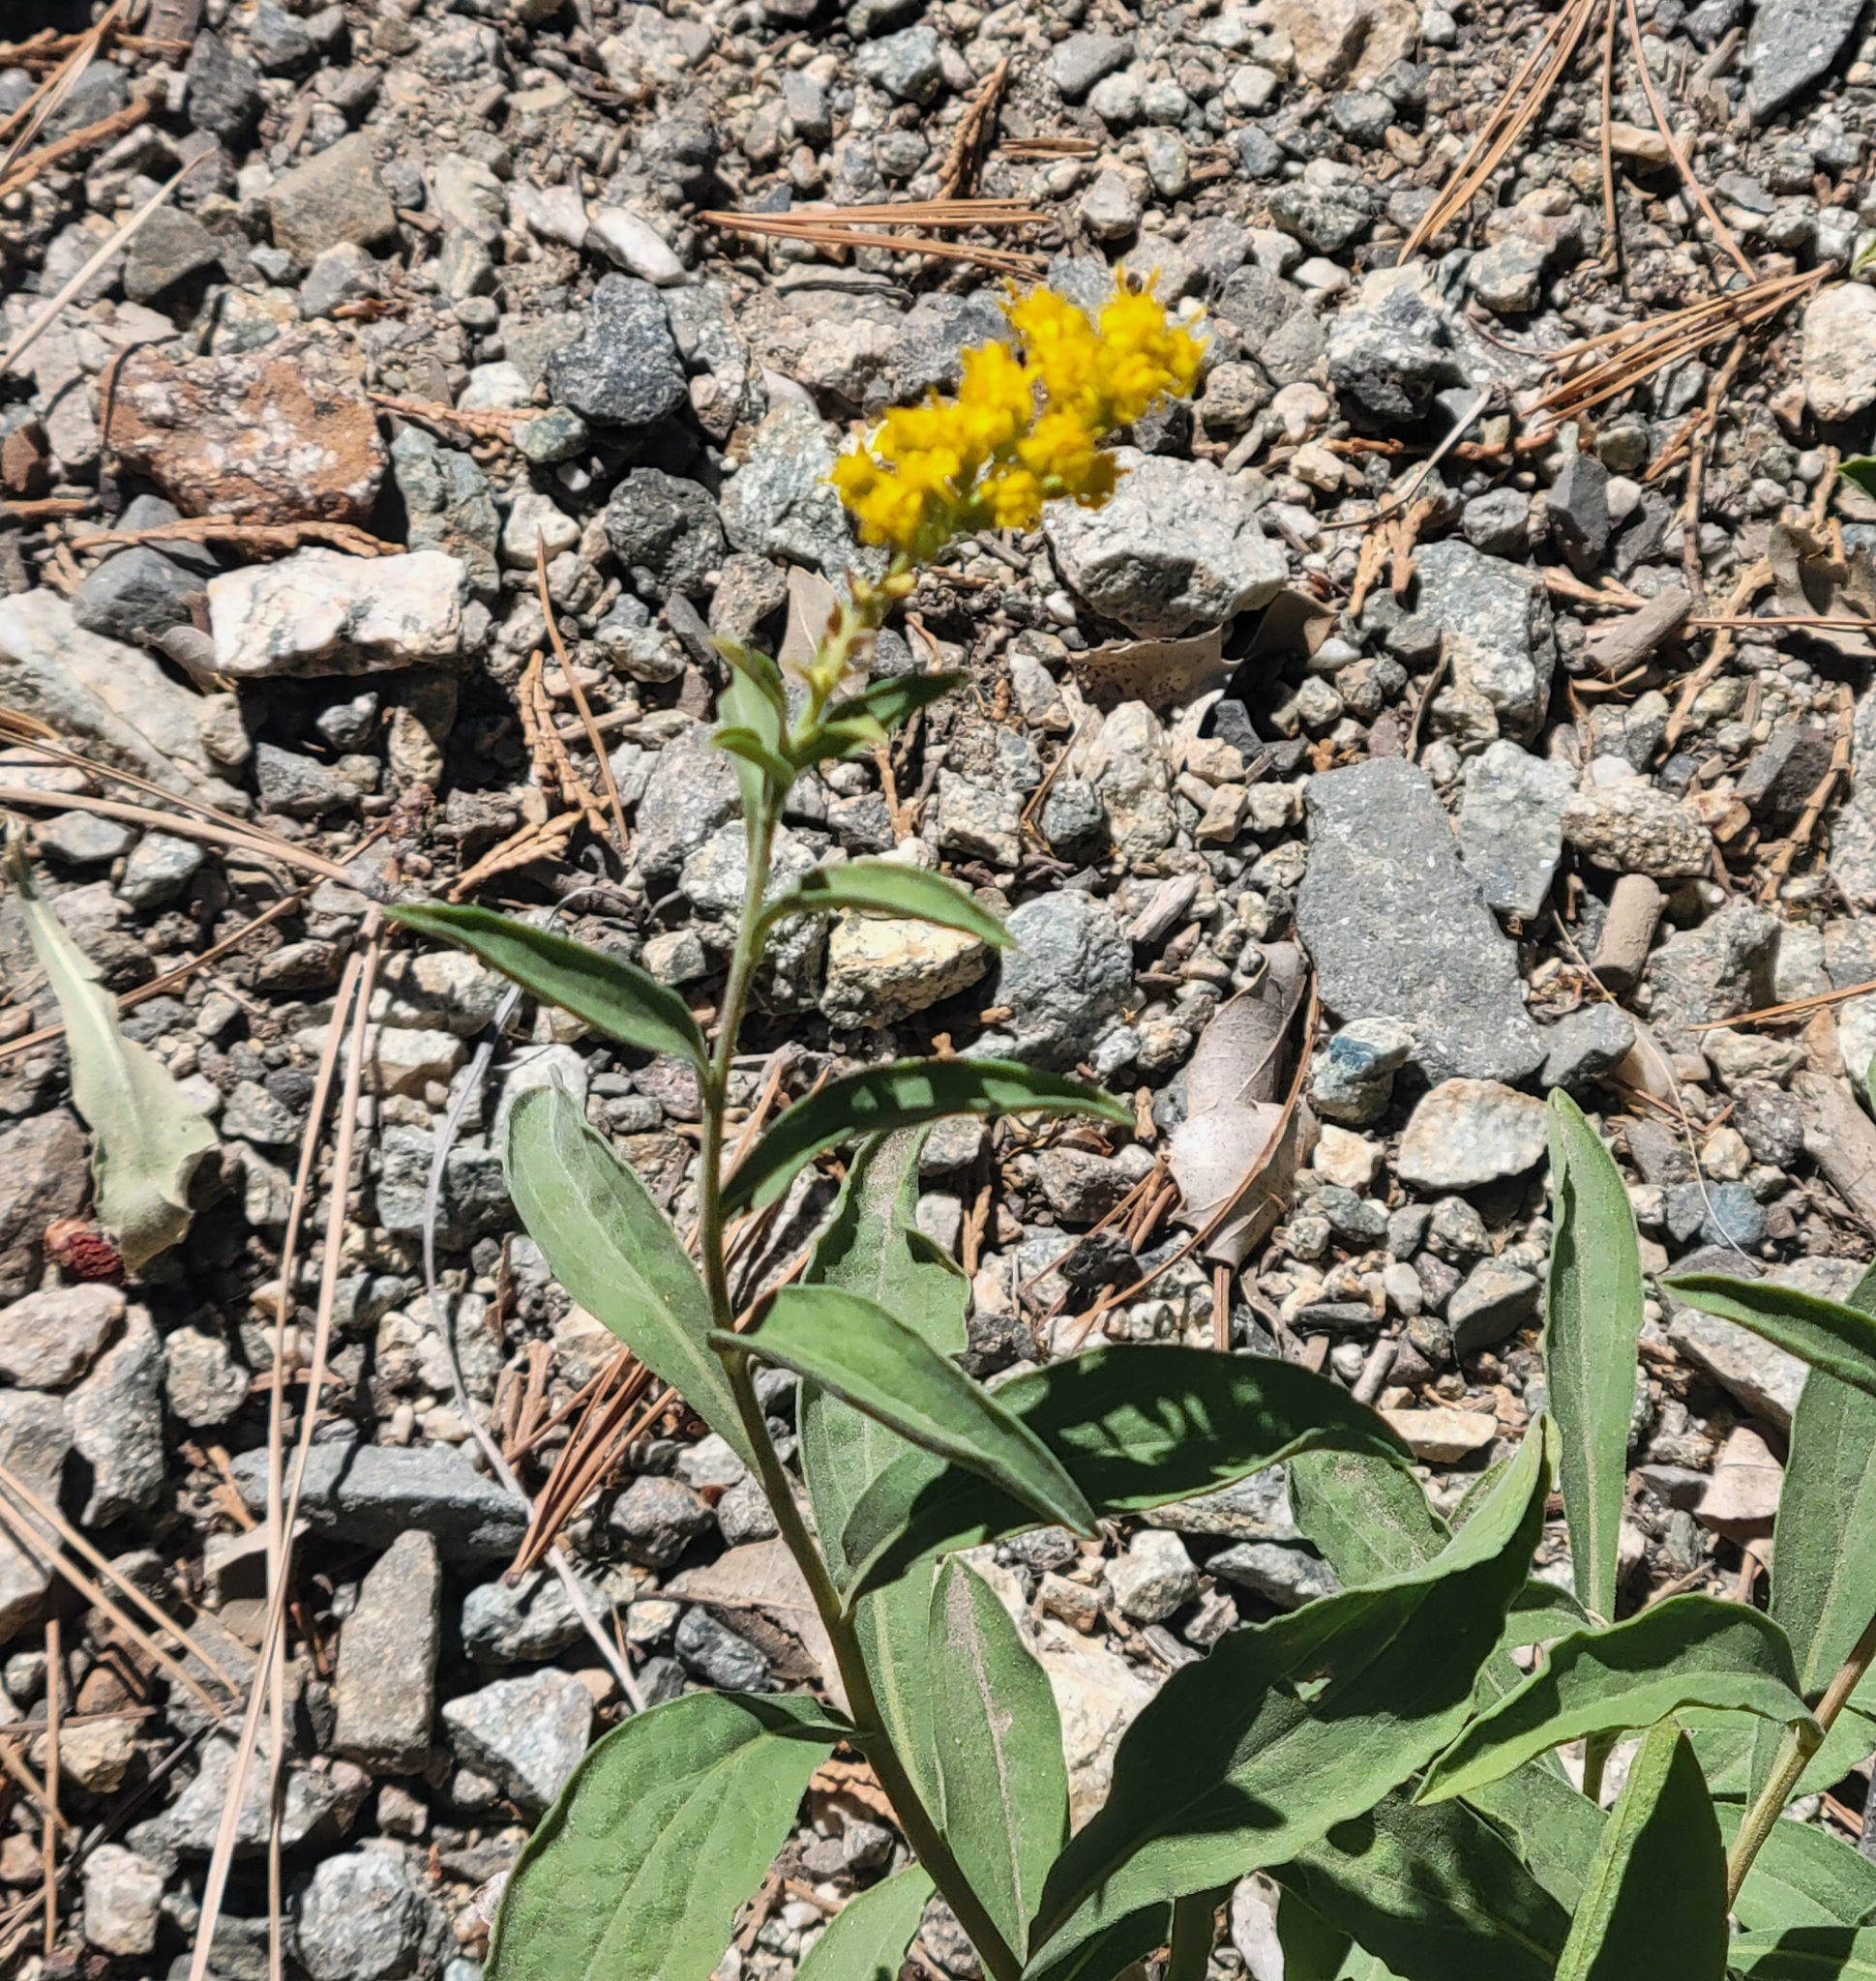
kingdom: Plantae
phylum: Tracheophyta
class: Magnoliopsida
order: Asterales
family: Asteraceae
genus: Solidago
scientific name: Solidago velutina
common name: Three-nerve goldenrod
